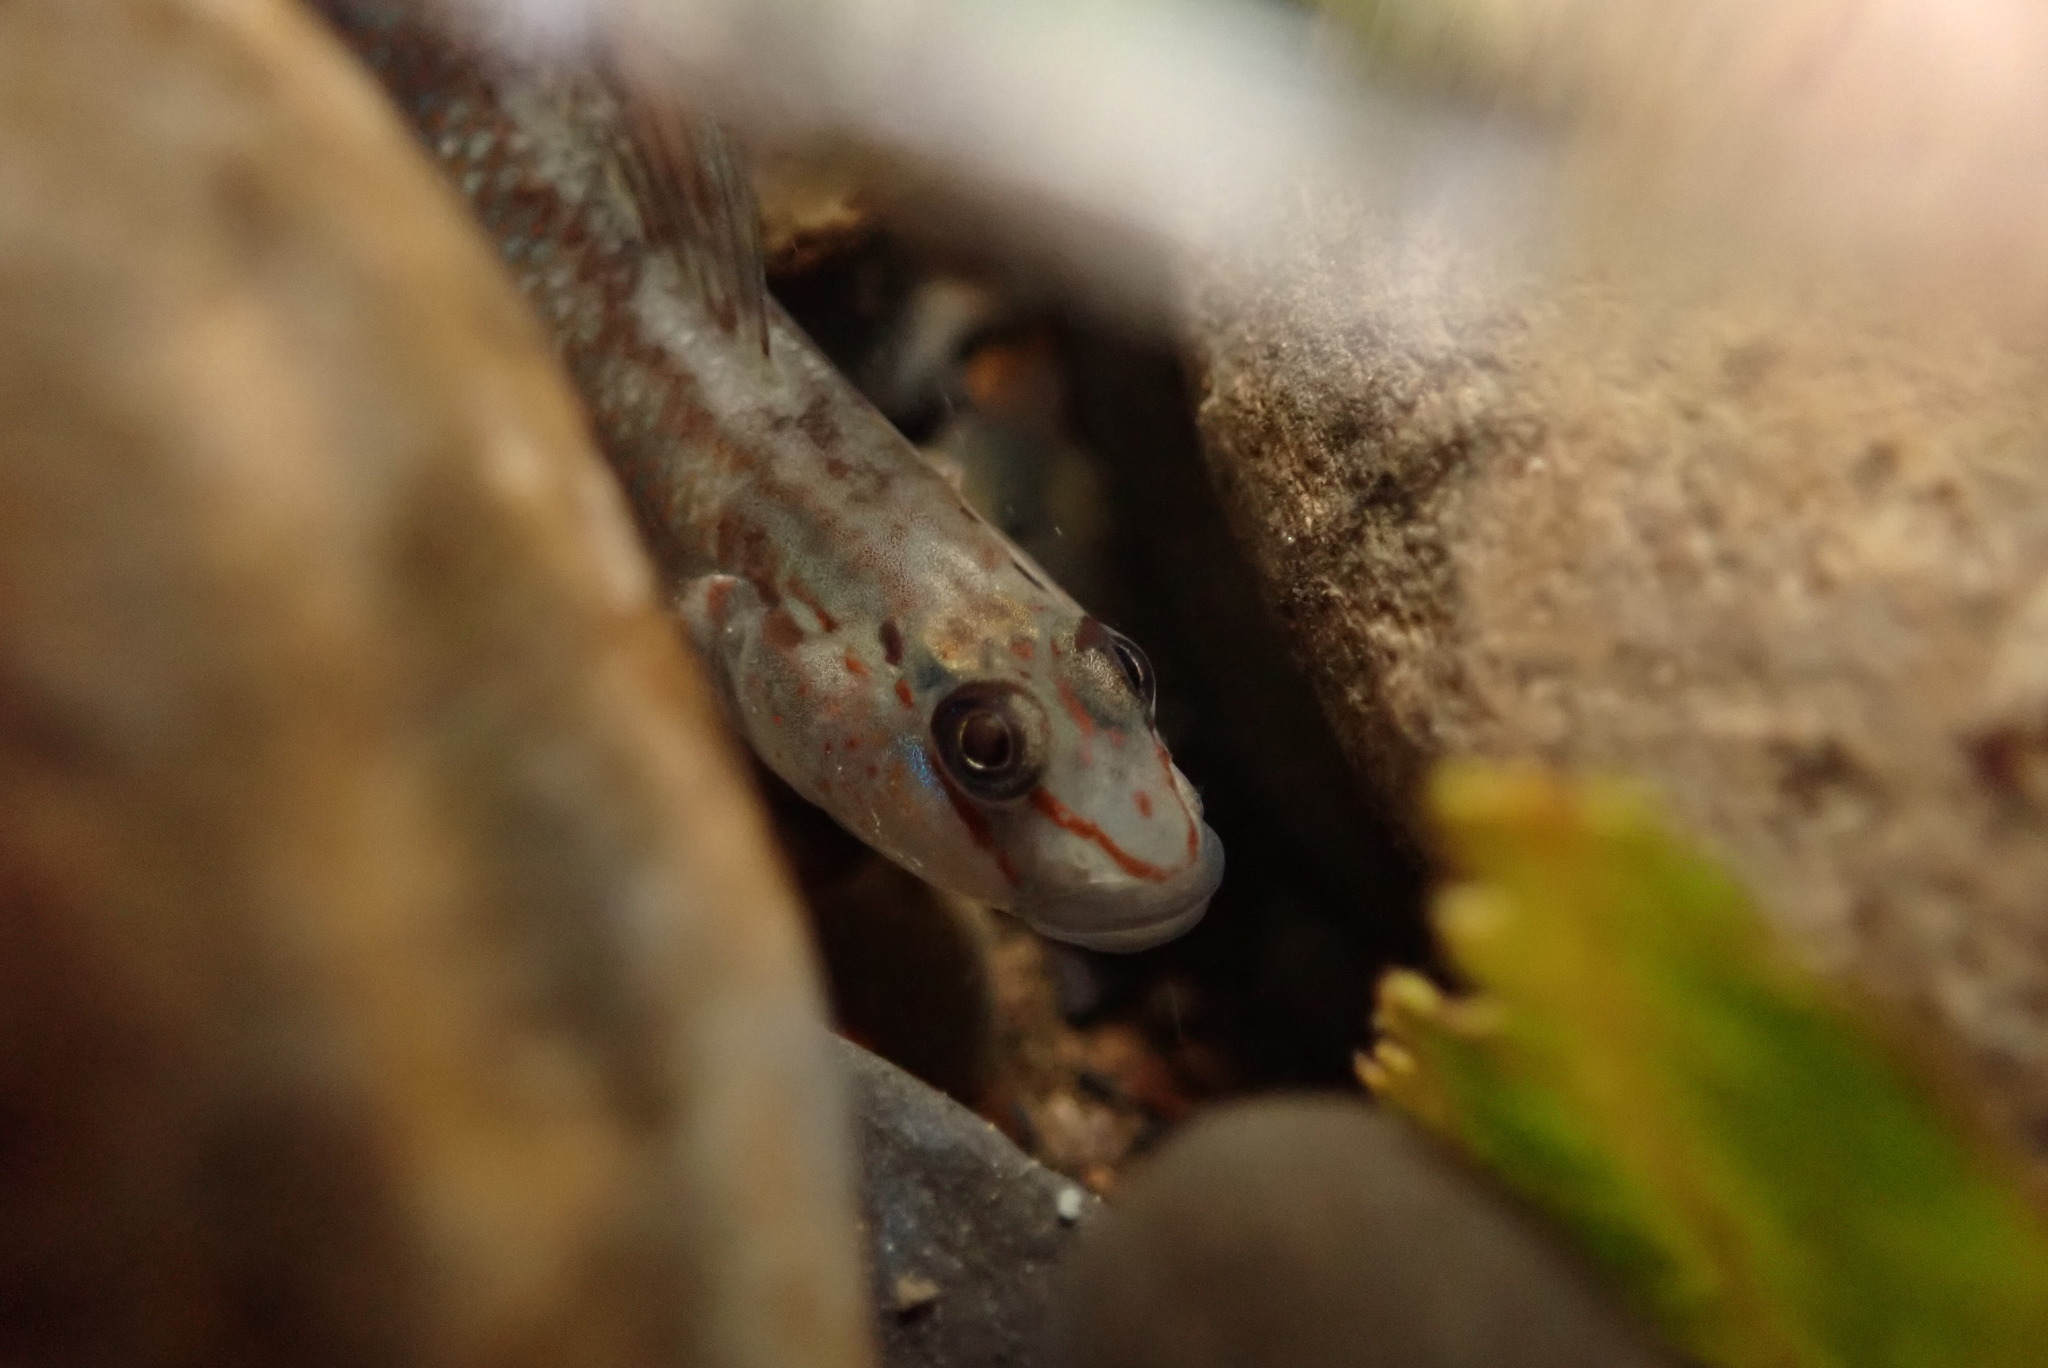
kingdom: Animalia
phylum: Chordata
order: Perciformes
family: Gobiidae
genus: Rhinogobius
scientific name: Rhinogobius candidianus
